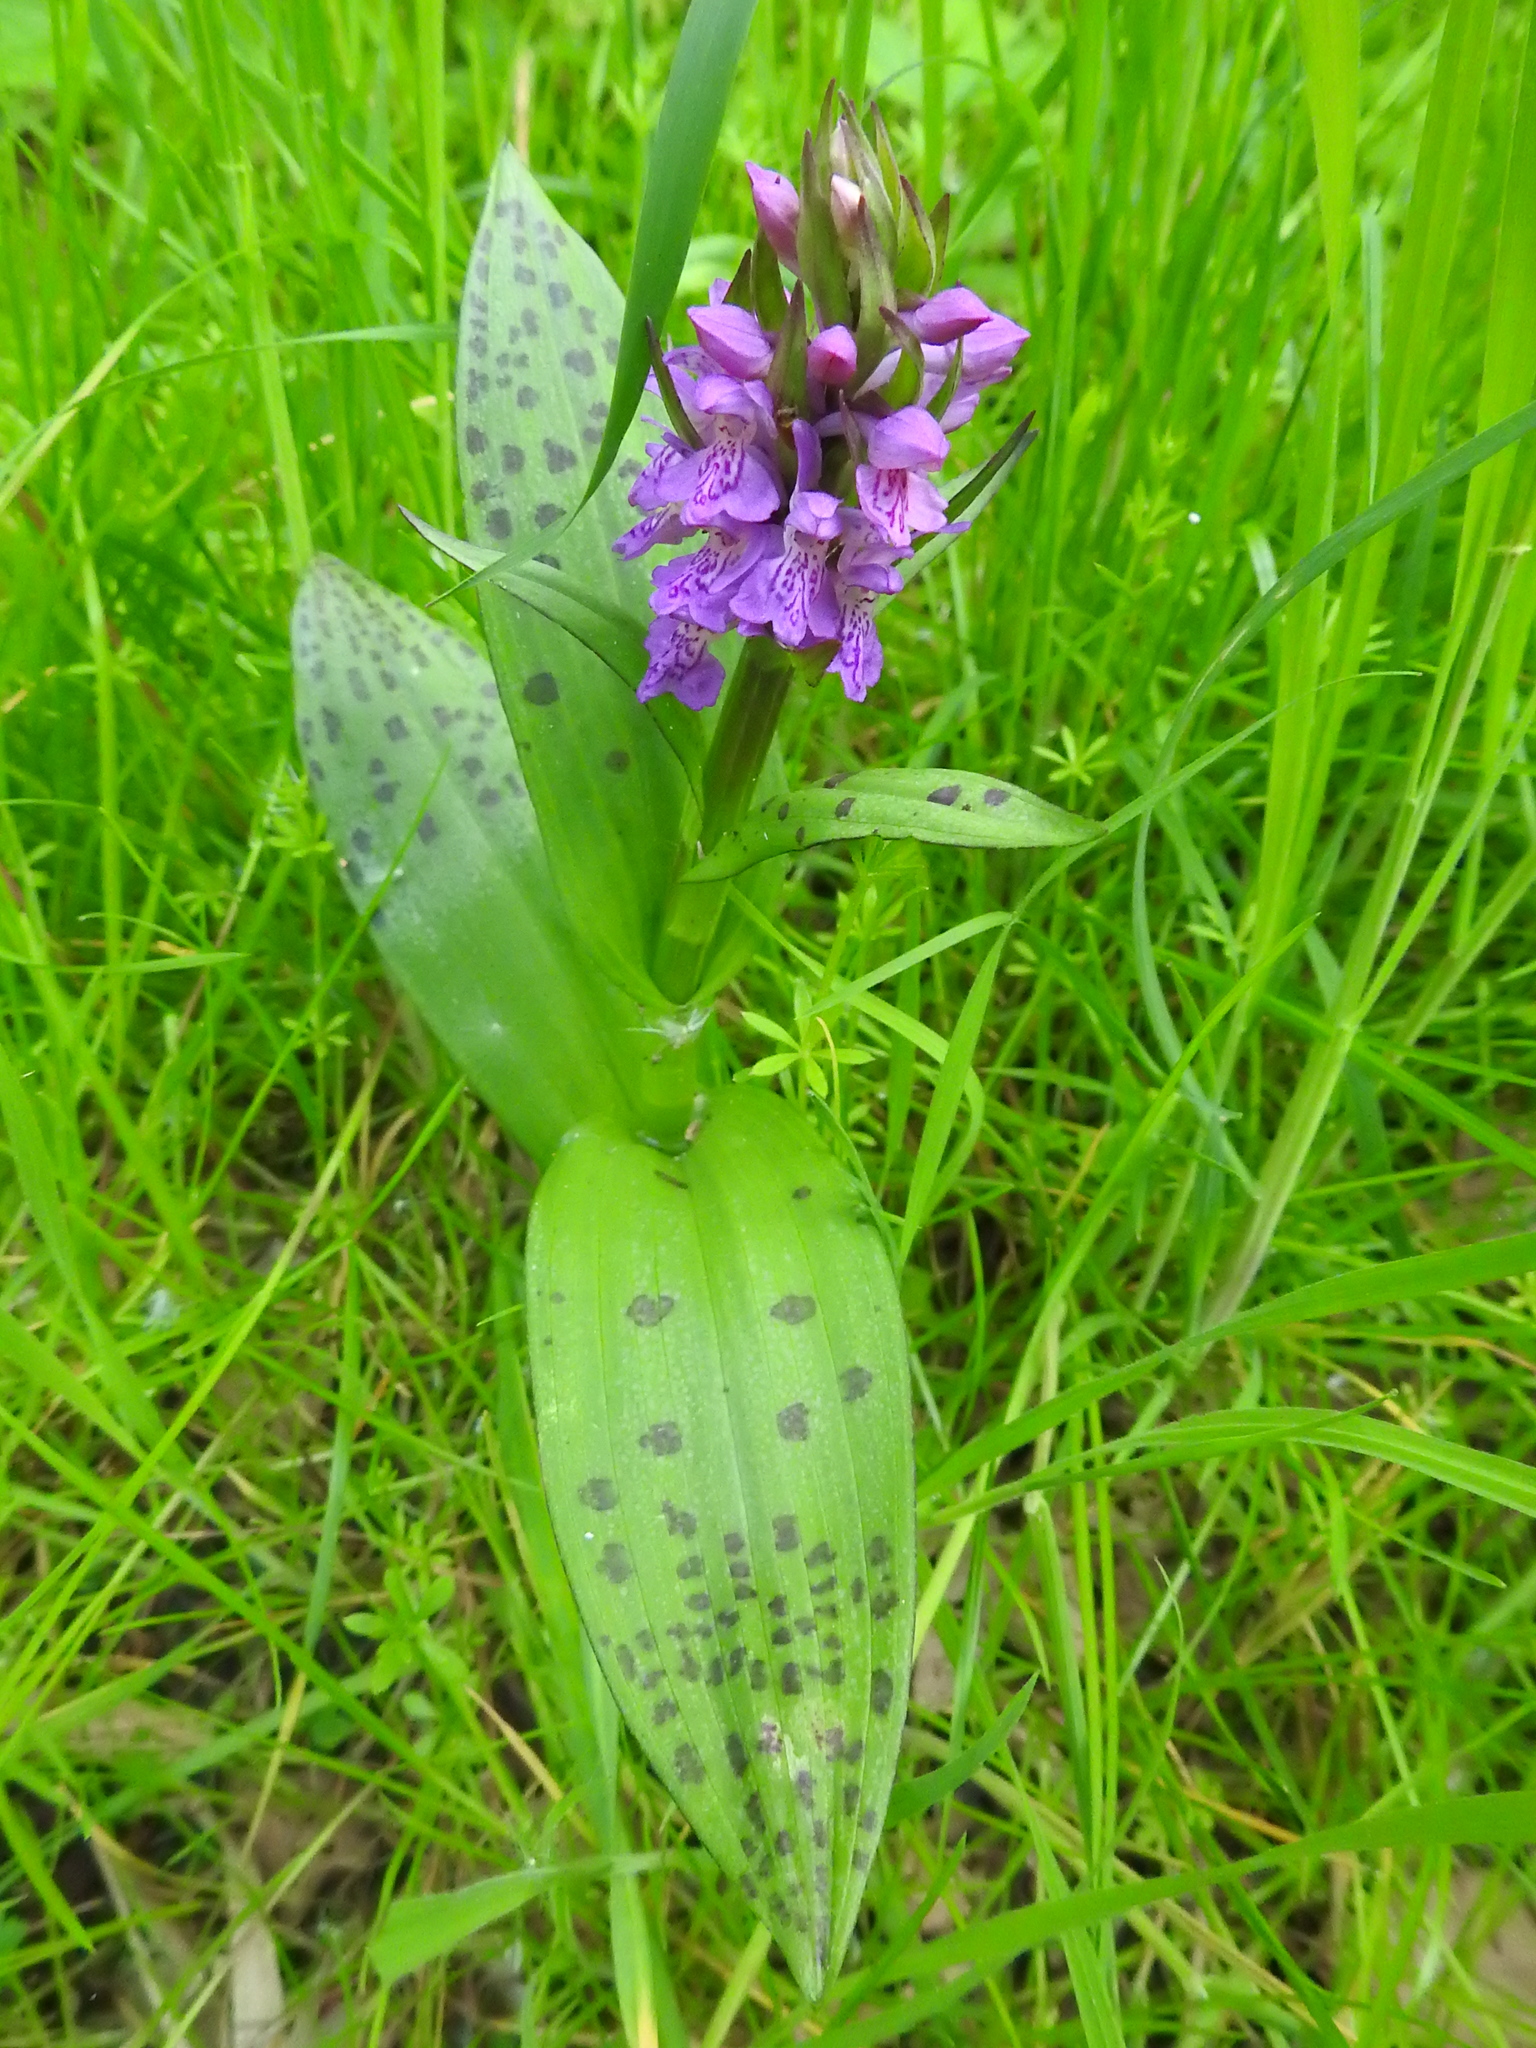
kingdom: Plantae
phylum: Tracheophyta
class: Liliopsida
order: Asparagales
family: Orchidaceae
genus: Dactylorhiza
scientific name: Dactylorhiza majalis
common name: Marsh orchid
